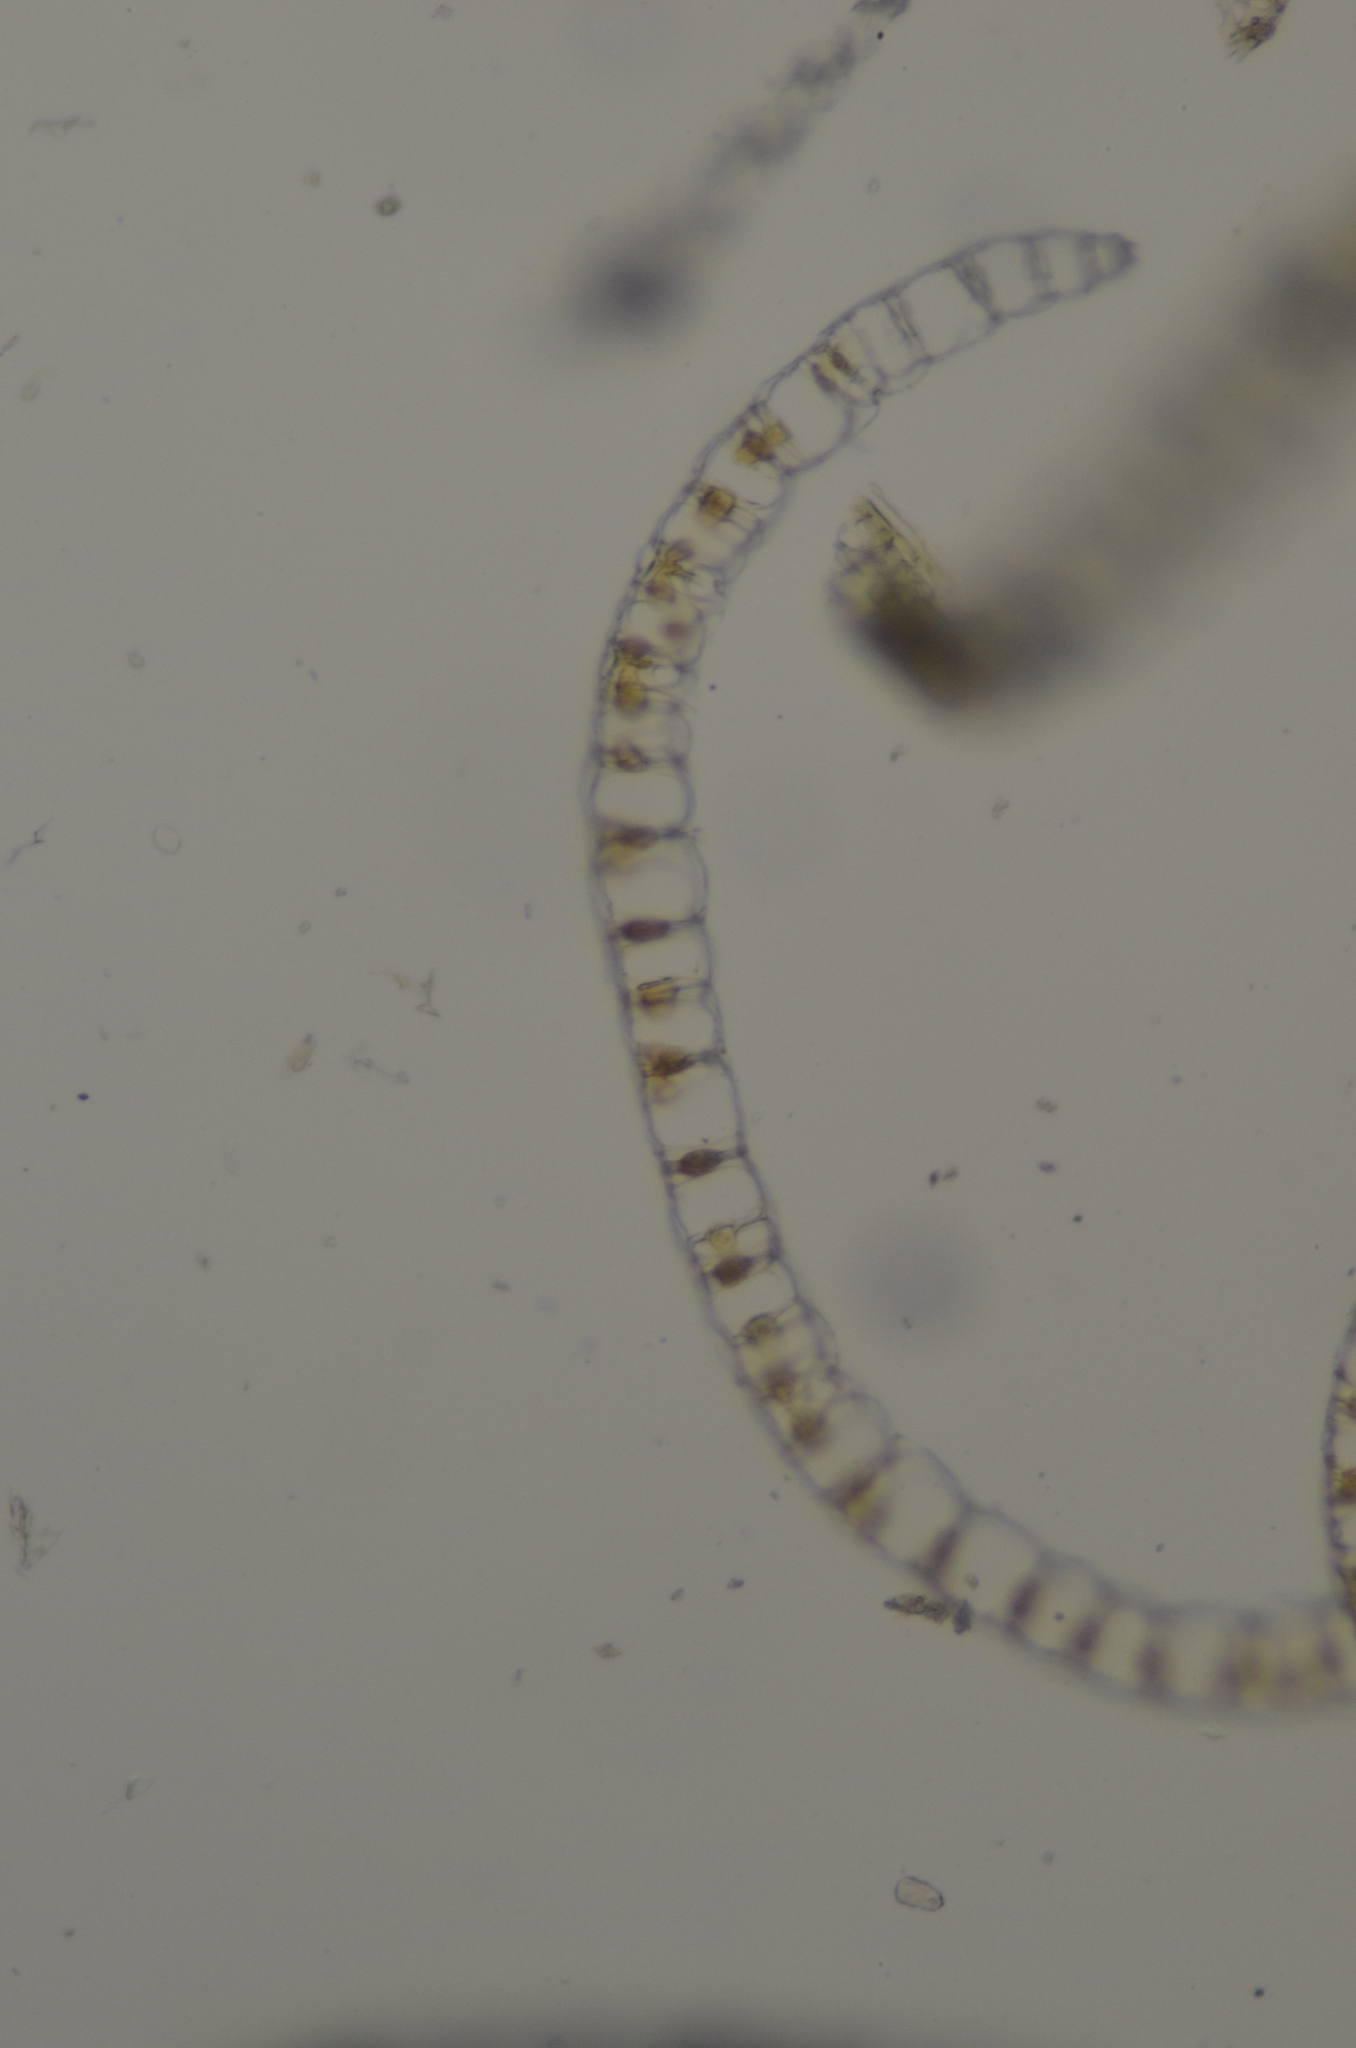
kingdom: Plantae
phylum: Bryophyta
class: Sphagnopsida
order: Sphagnales
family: Sphagnaceae
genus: Sphagnum
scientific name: Sphagnum compactum
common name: Compact peat moss
